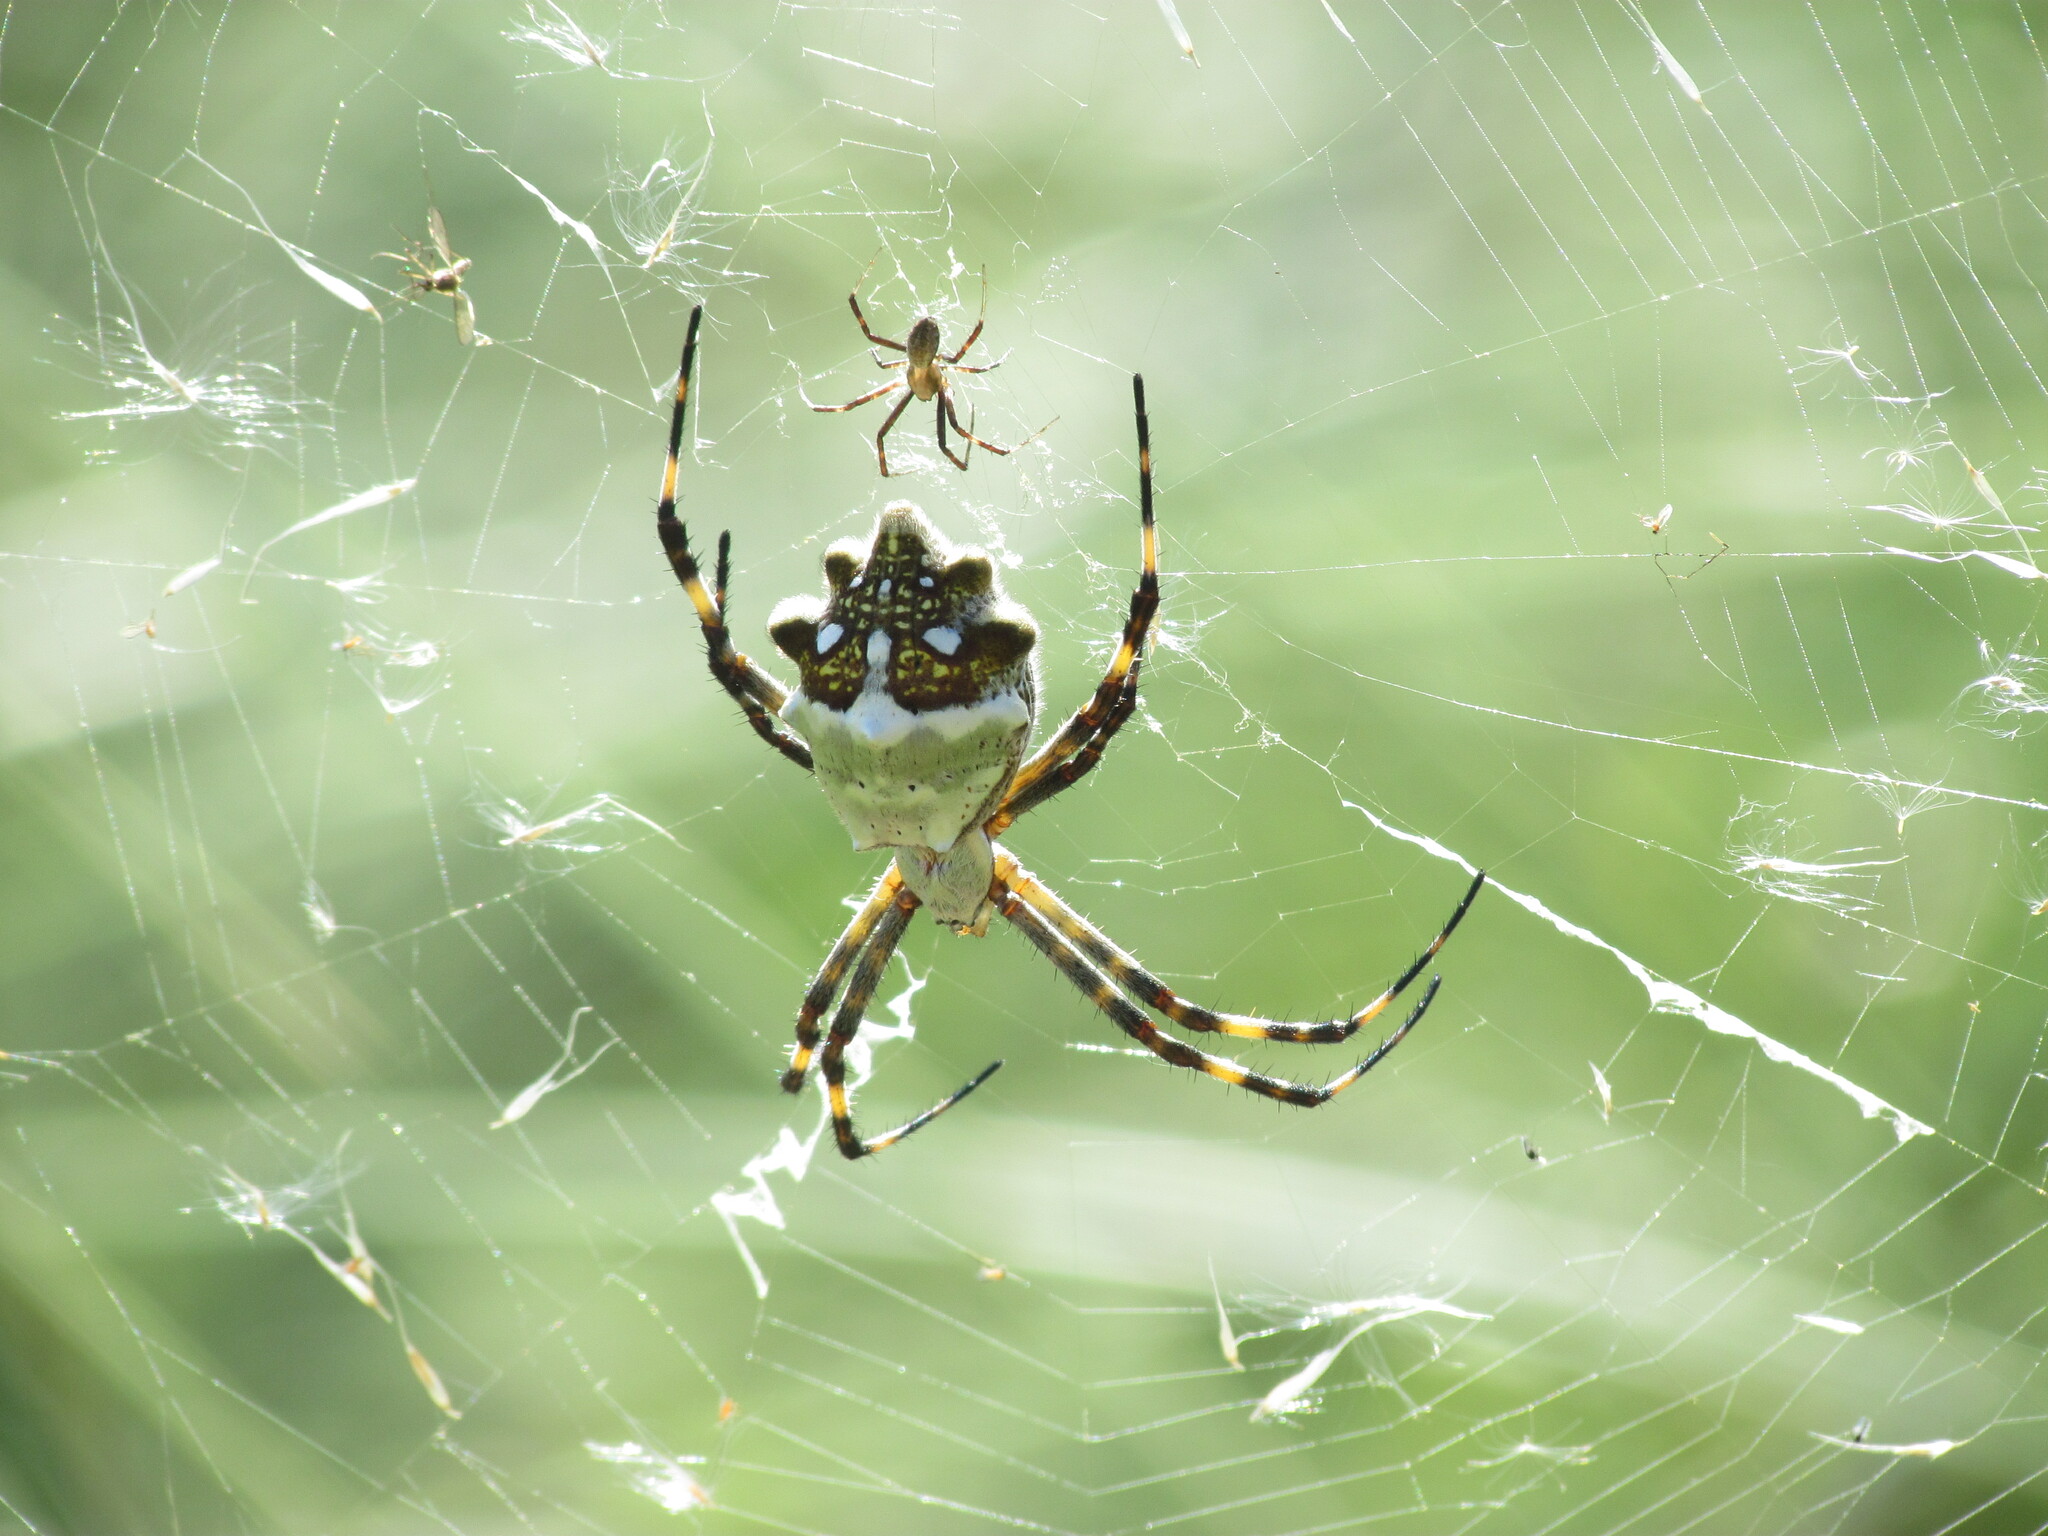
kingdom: Animalia
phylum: Arthropoda
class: Arachnida
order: Araneae
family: Araneidae
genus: Argiope
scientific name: Argiope argentata
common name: Orb weavers
